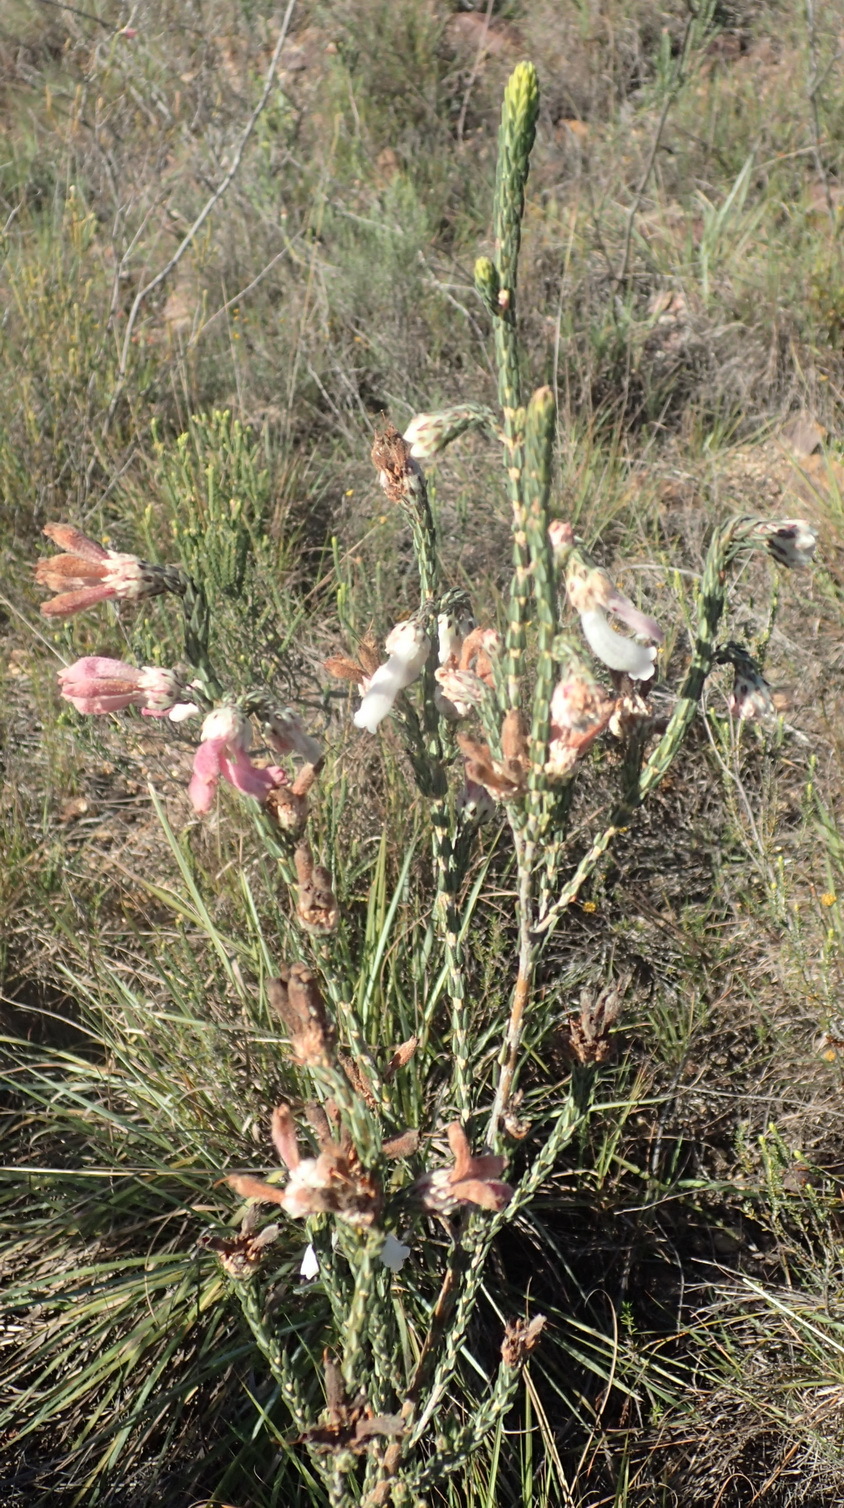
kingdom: Plantae
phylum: Tracheophyta
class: Magnoliopsida
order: Ericales
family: Ericaceae
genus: Erica
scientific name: Erica pectinifolia
